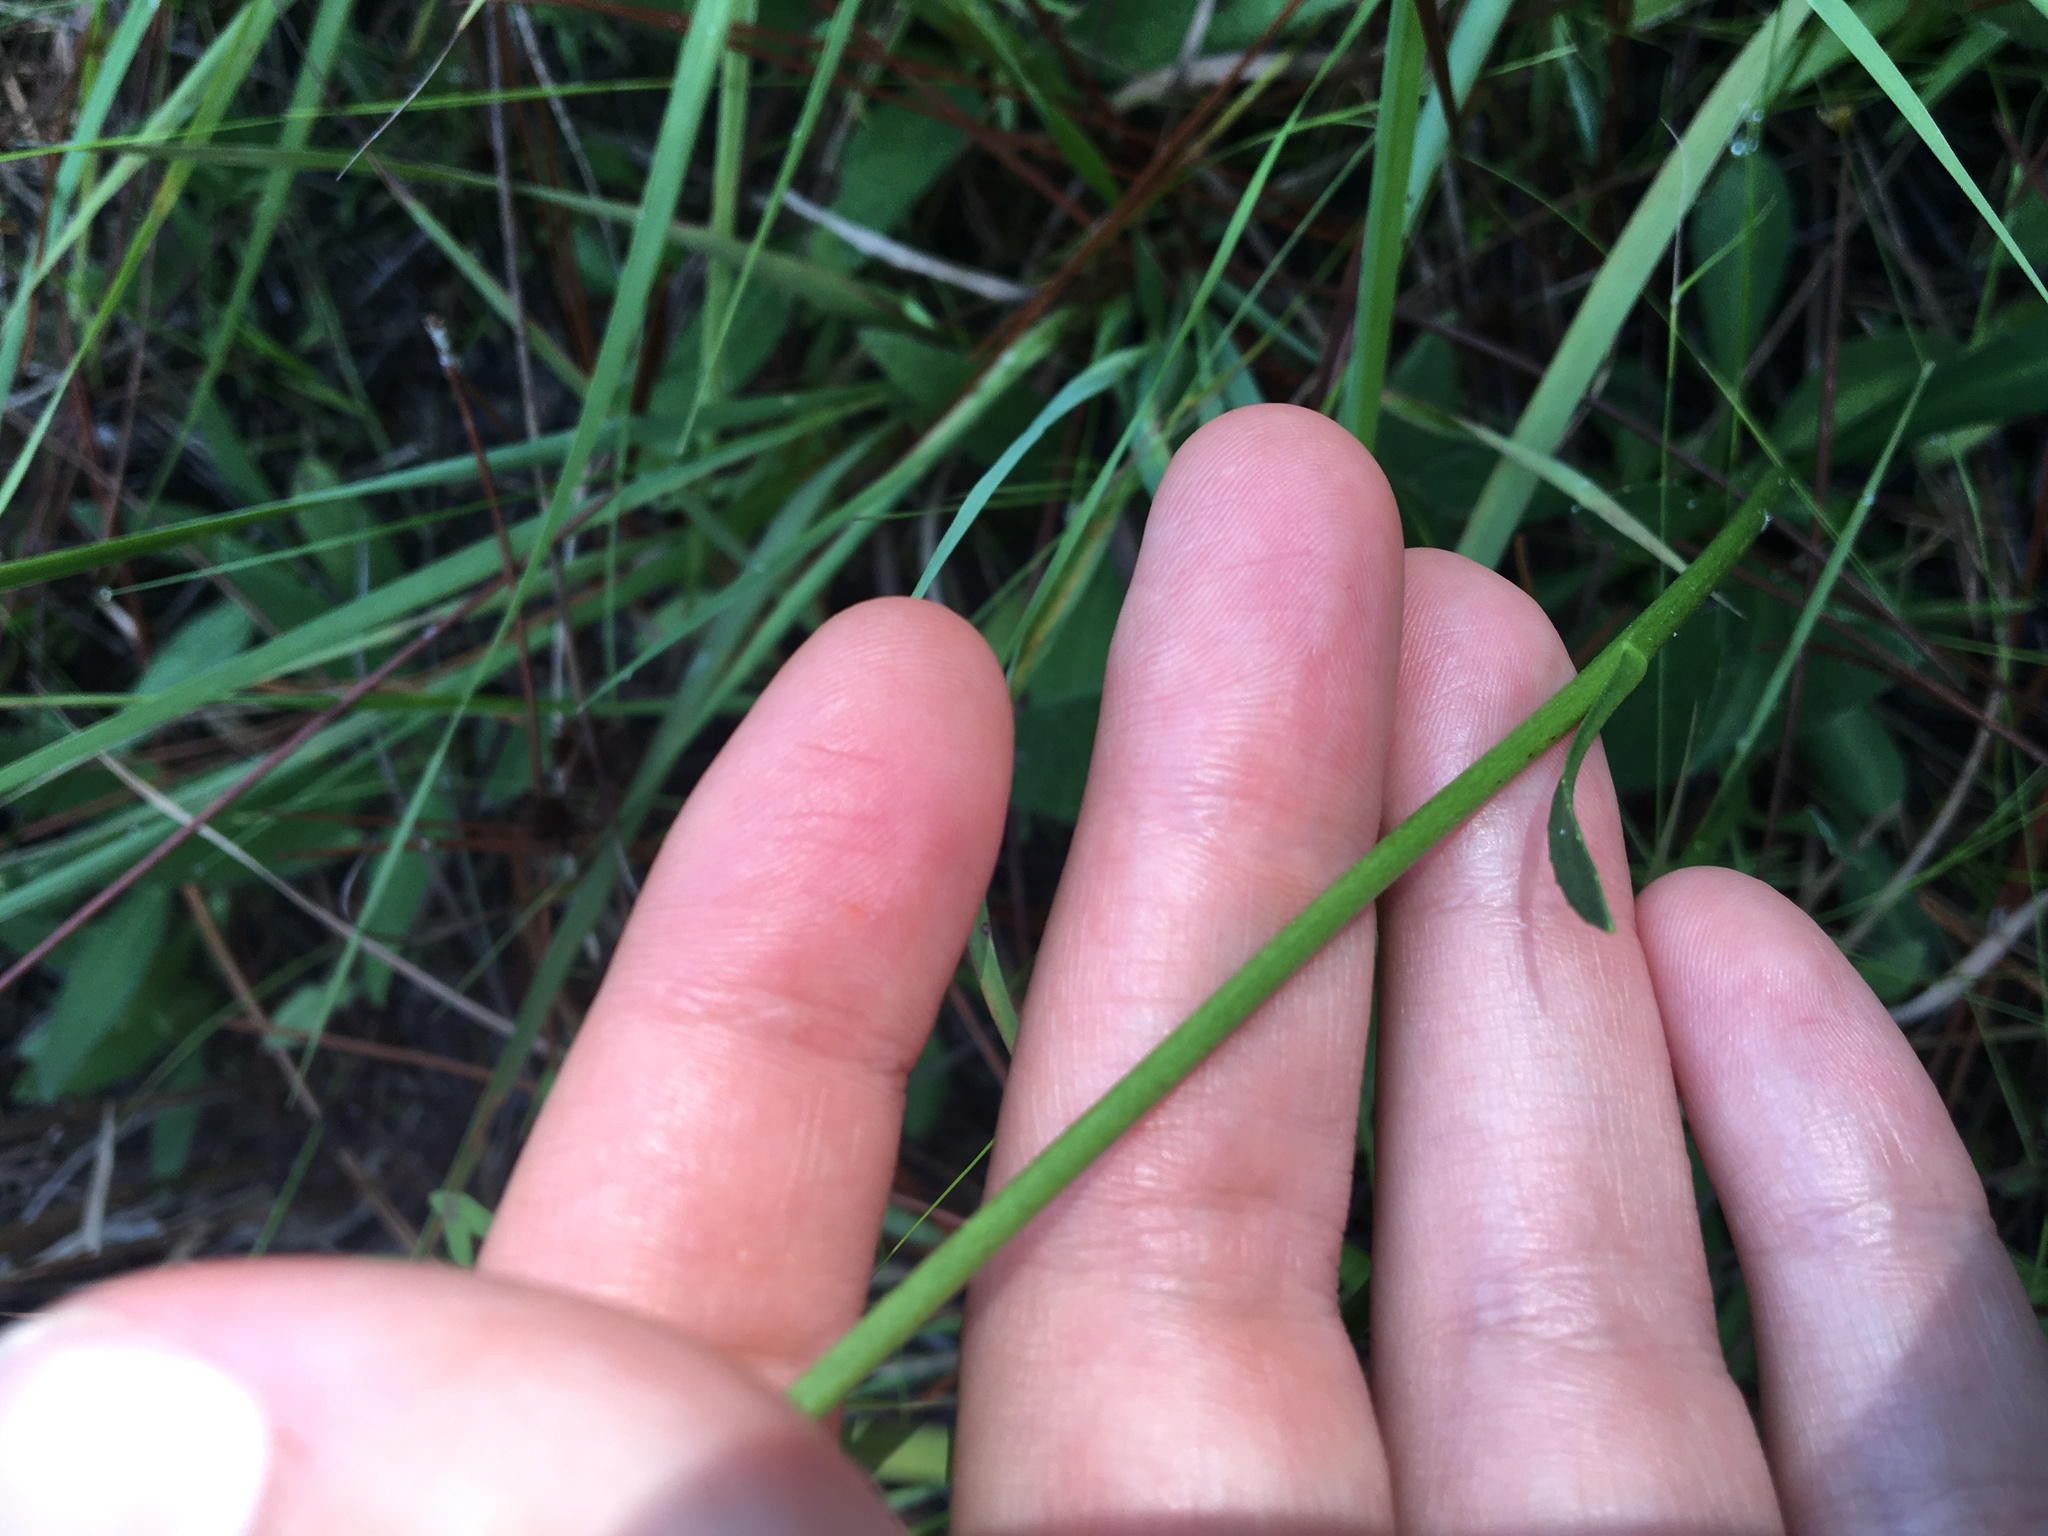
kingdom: Plantae
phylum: Tracheophyta
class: Magnoliopsida
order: Asterales
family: Asteraceae
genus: Erigeron
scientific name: Erigeron vernus
